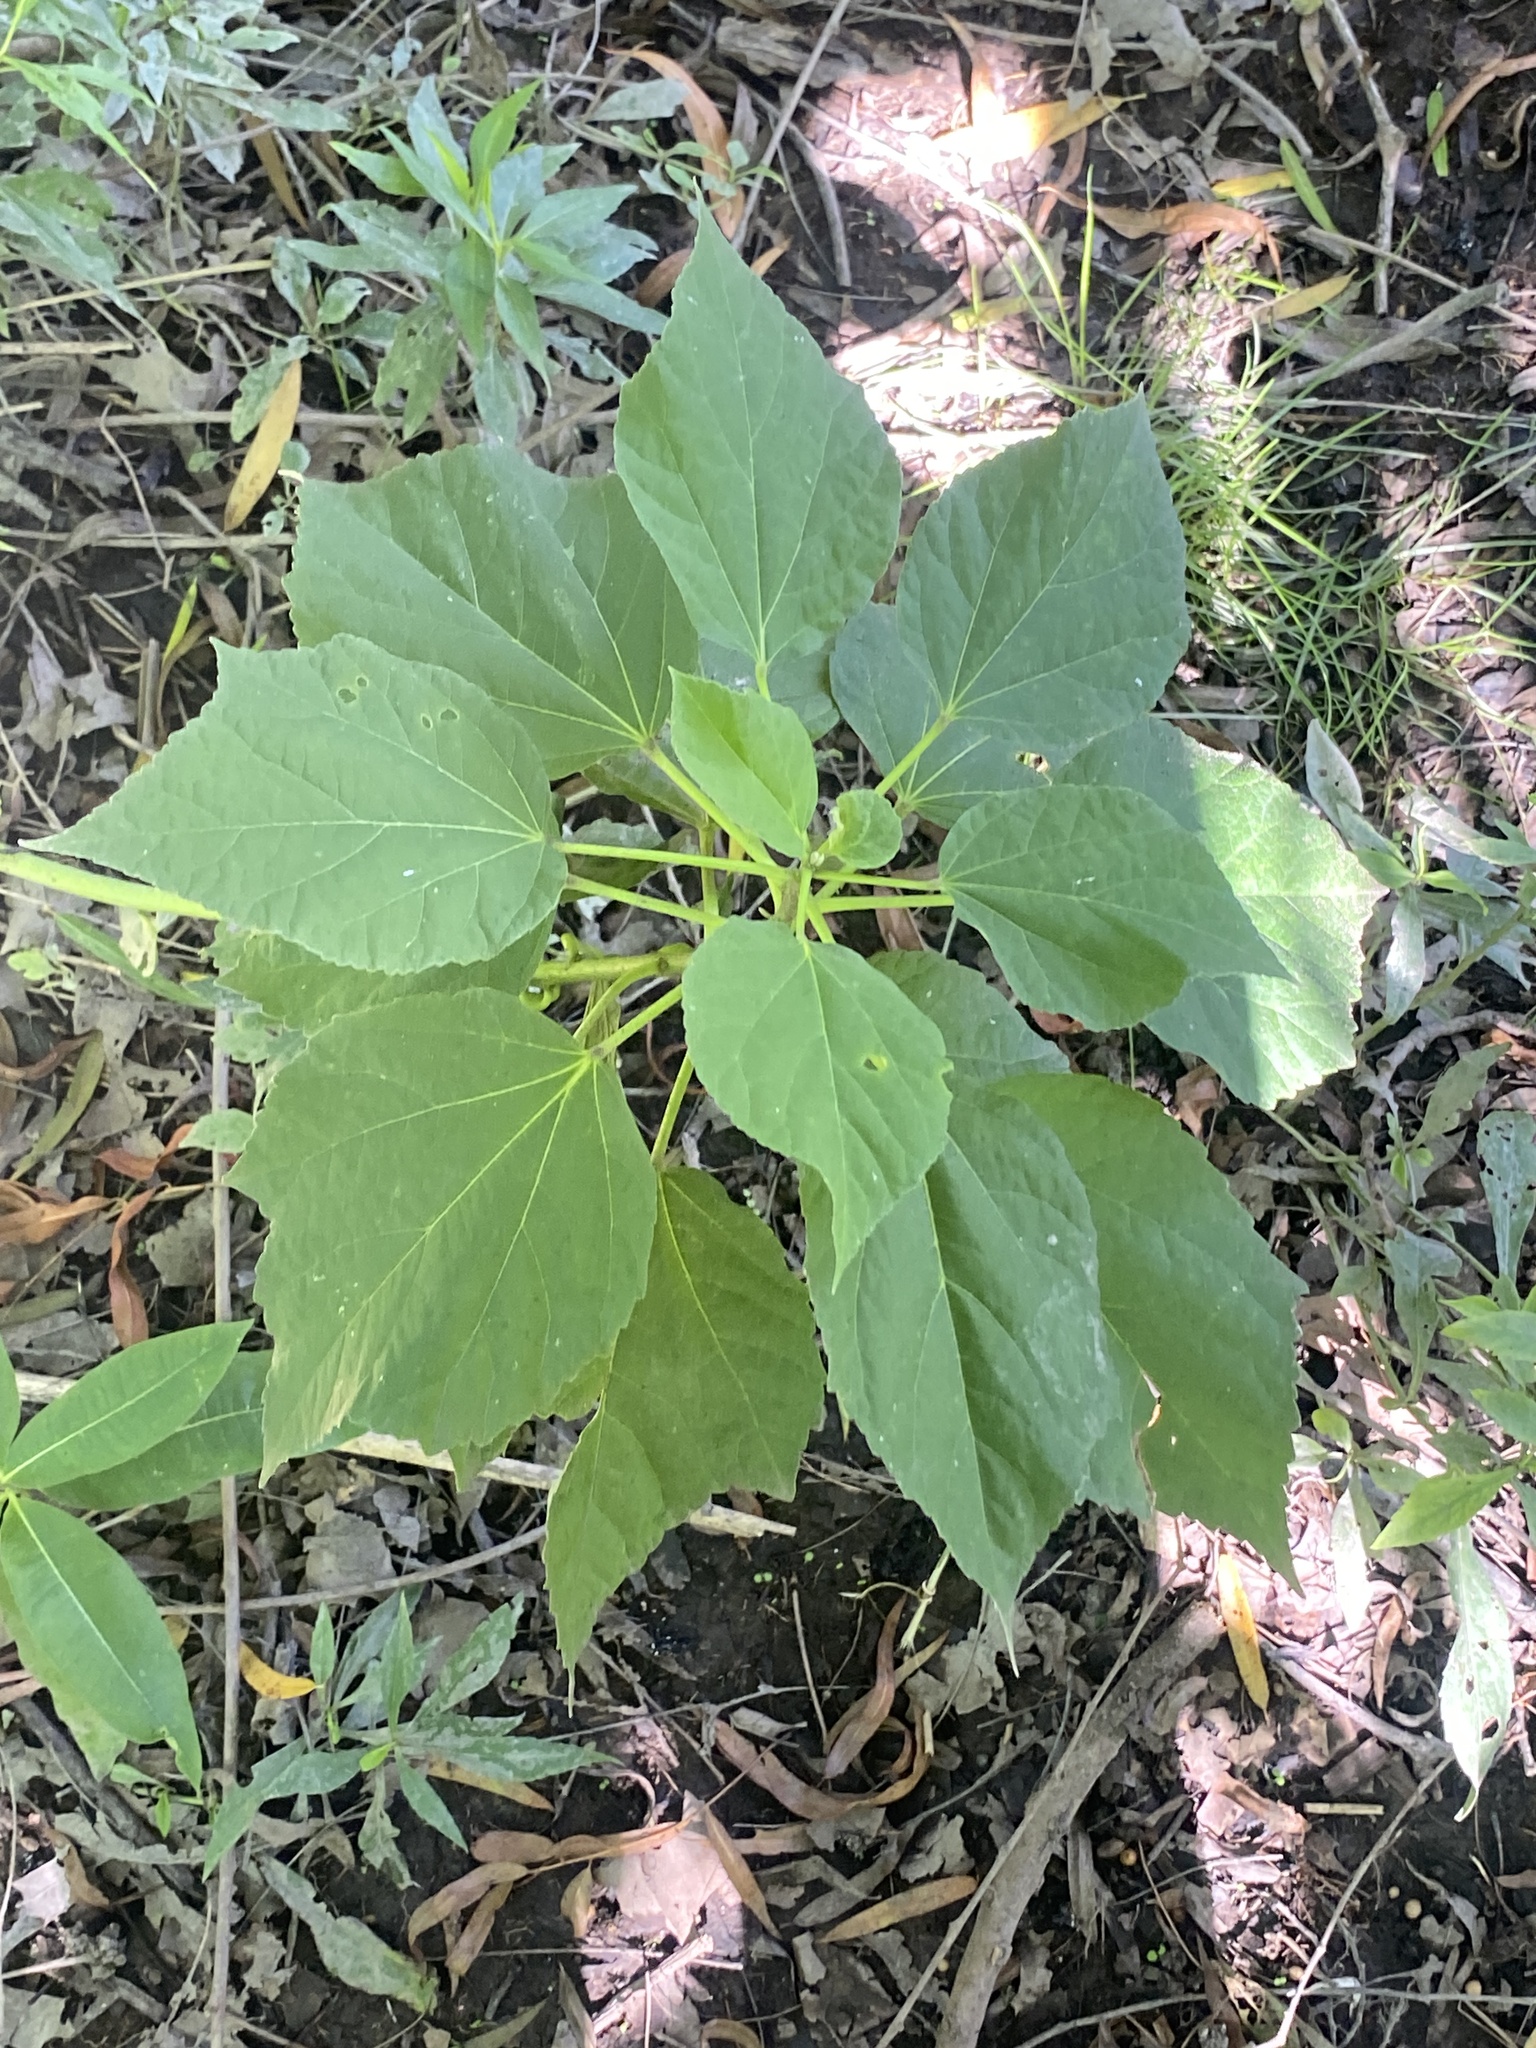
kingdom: Plantae
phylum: Tracheophyta
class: Magnoliopsida
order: Malvales
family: Malvaceae
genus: Hibiscus
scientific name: Hibiscus moscheutos
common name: Common rose-mallow
